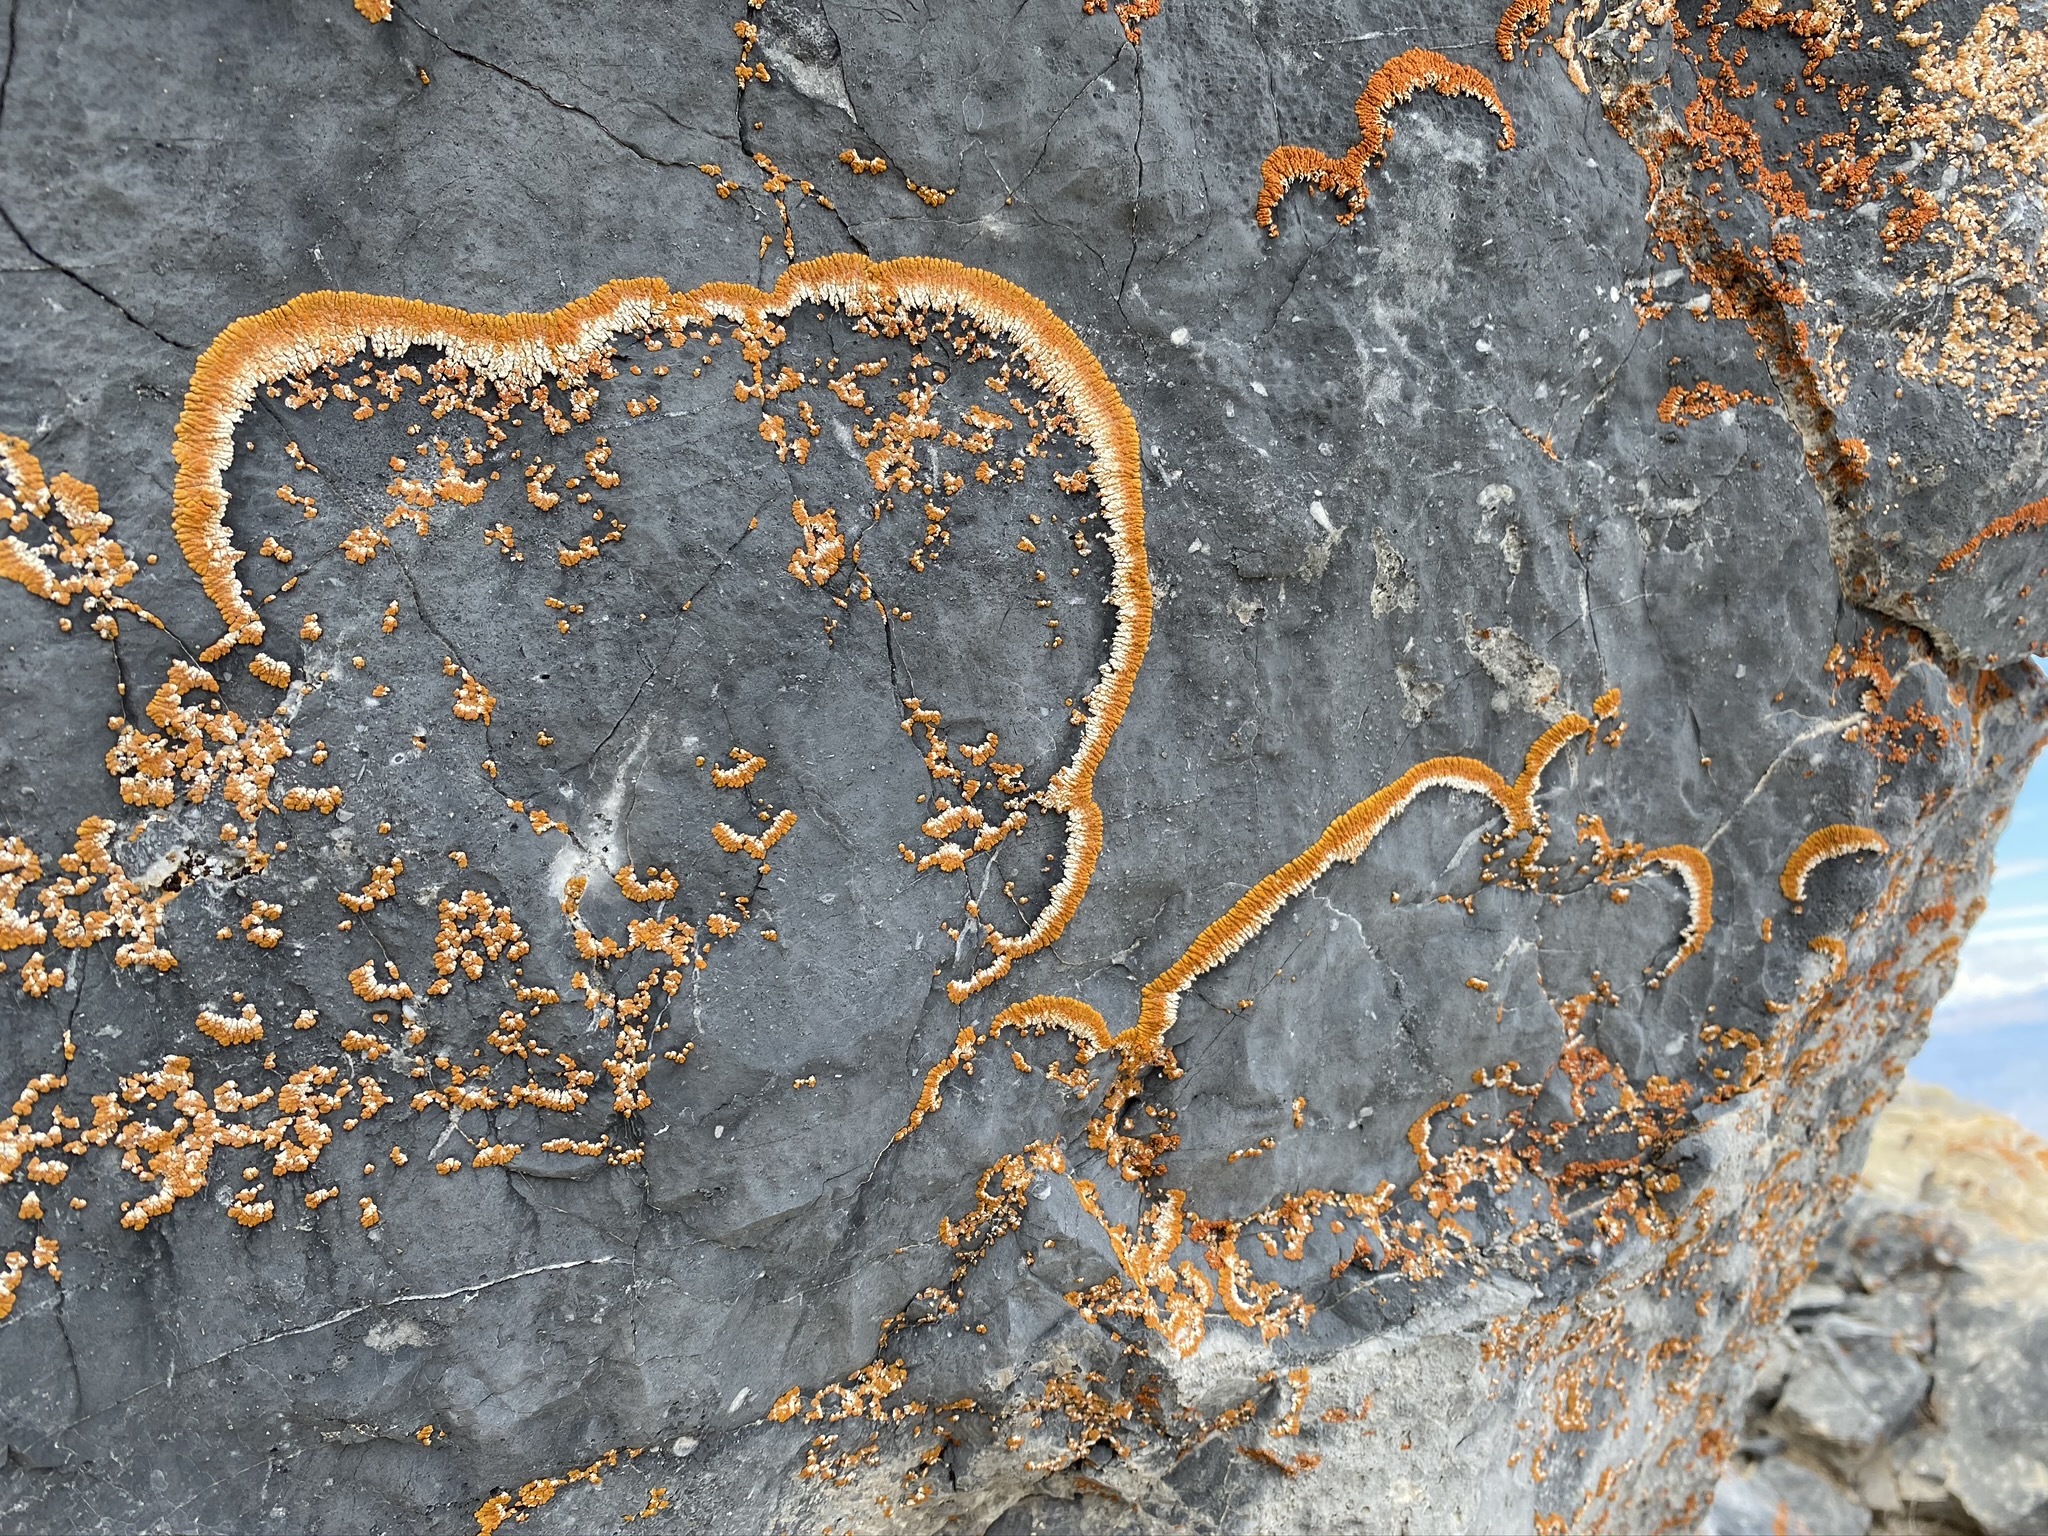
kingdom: Fungi
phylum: Ascomycota
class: Lecanoromycetes
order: Teloschistales
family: Teloschistaceae
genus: Golubkovia
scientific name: Golubkovia trachyphylla
